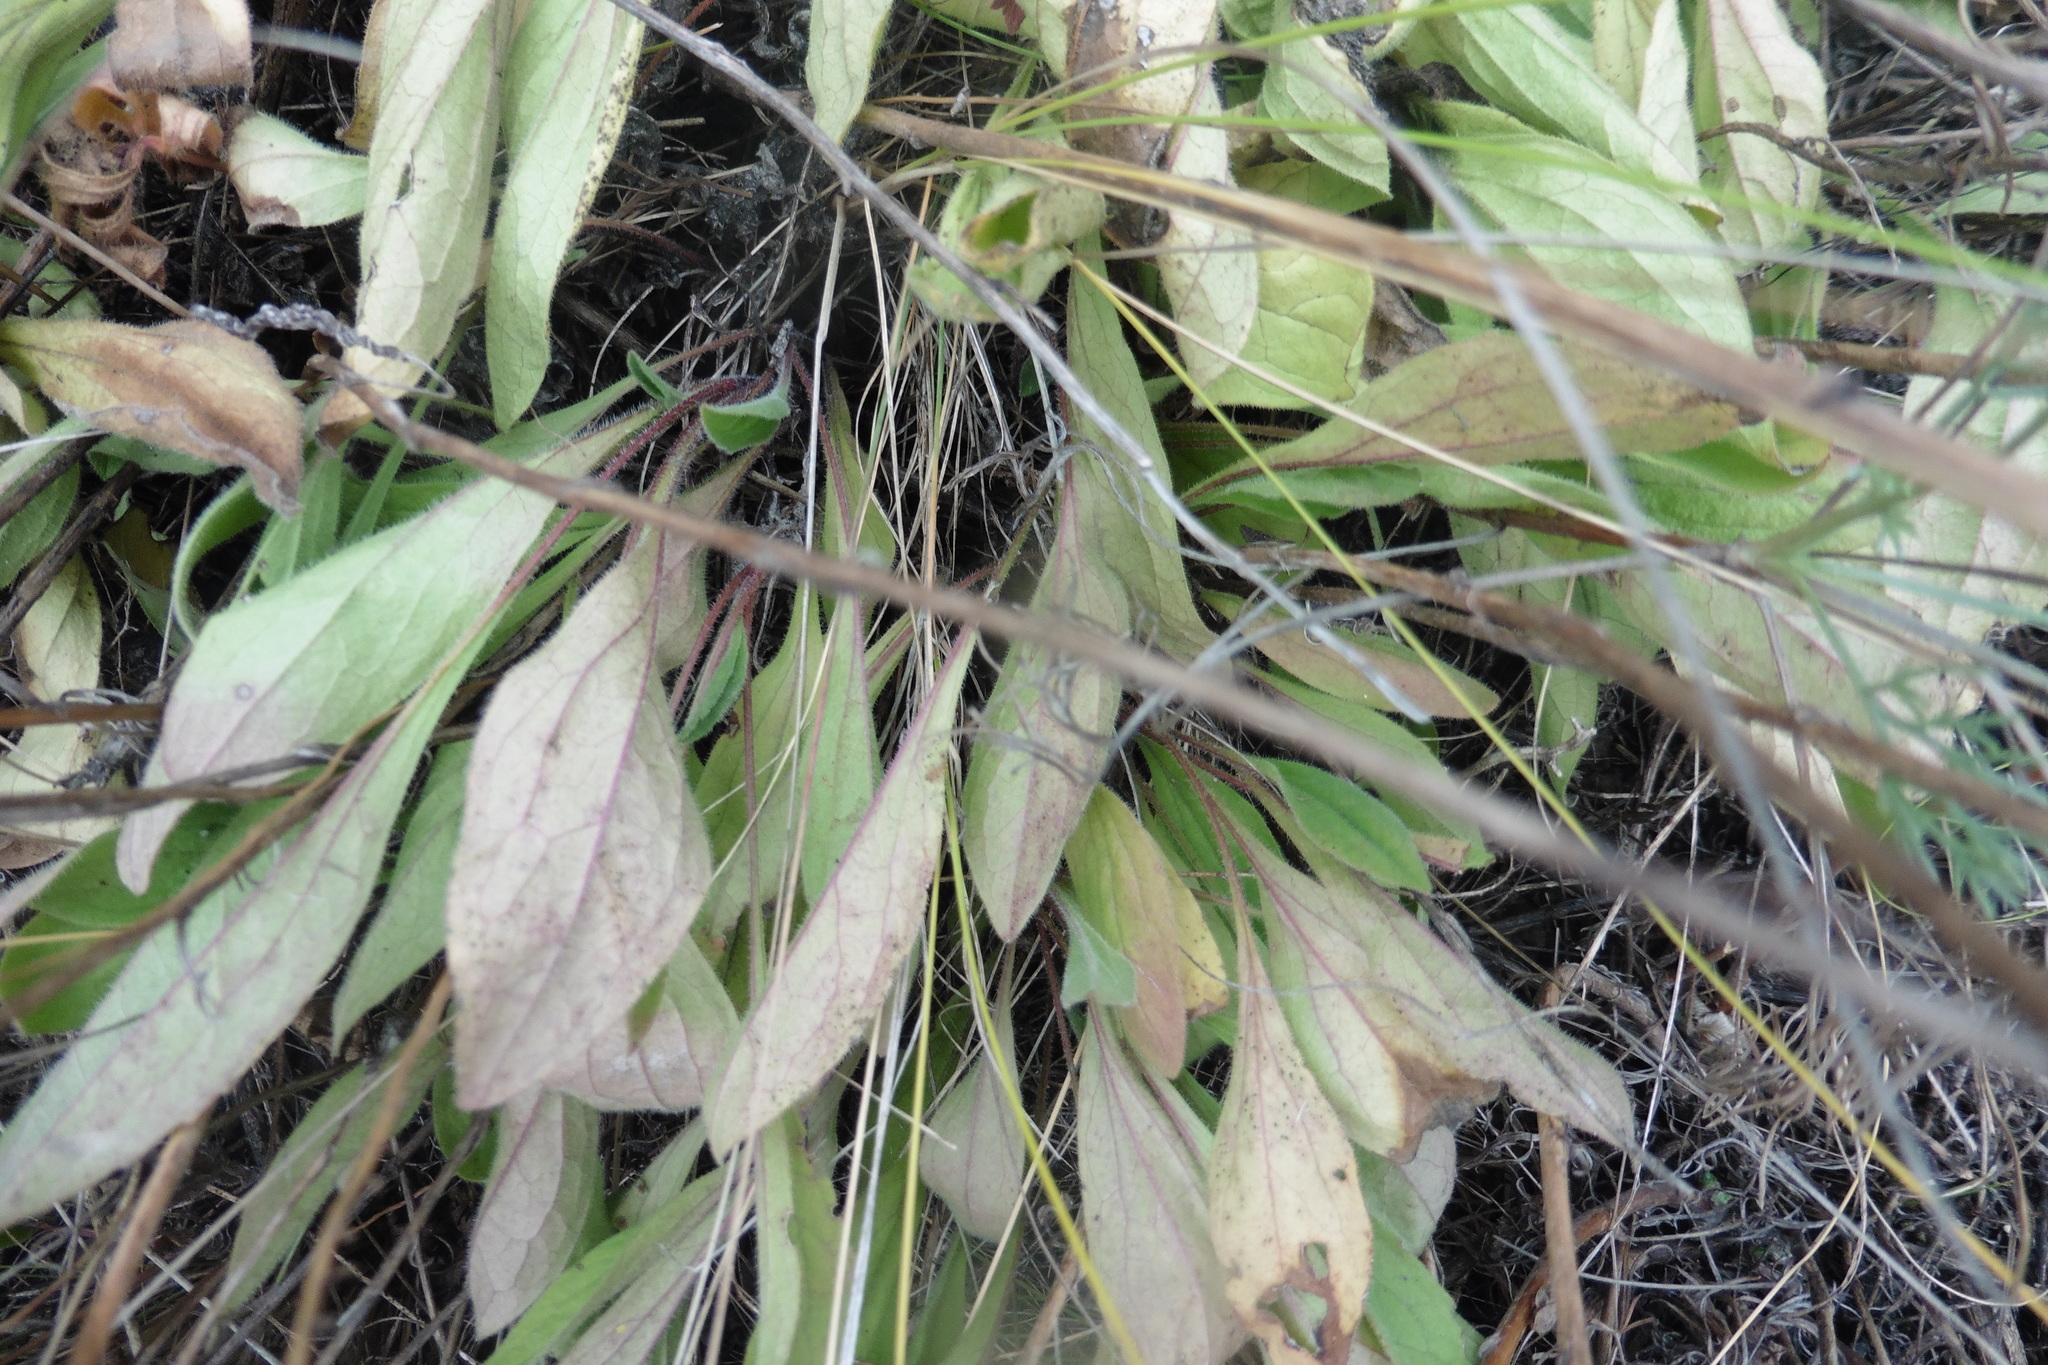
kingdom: Plantae
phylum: Tracheophyta
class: Magnoliopsida
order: Asterales
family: Asteraceae
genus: Aster
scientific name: Aster amellus
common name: European michaelmas daisy
